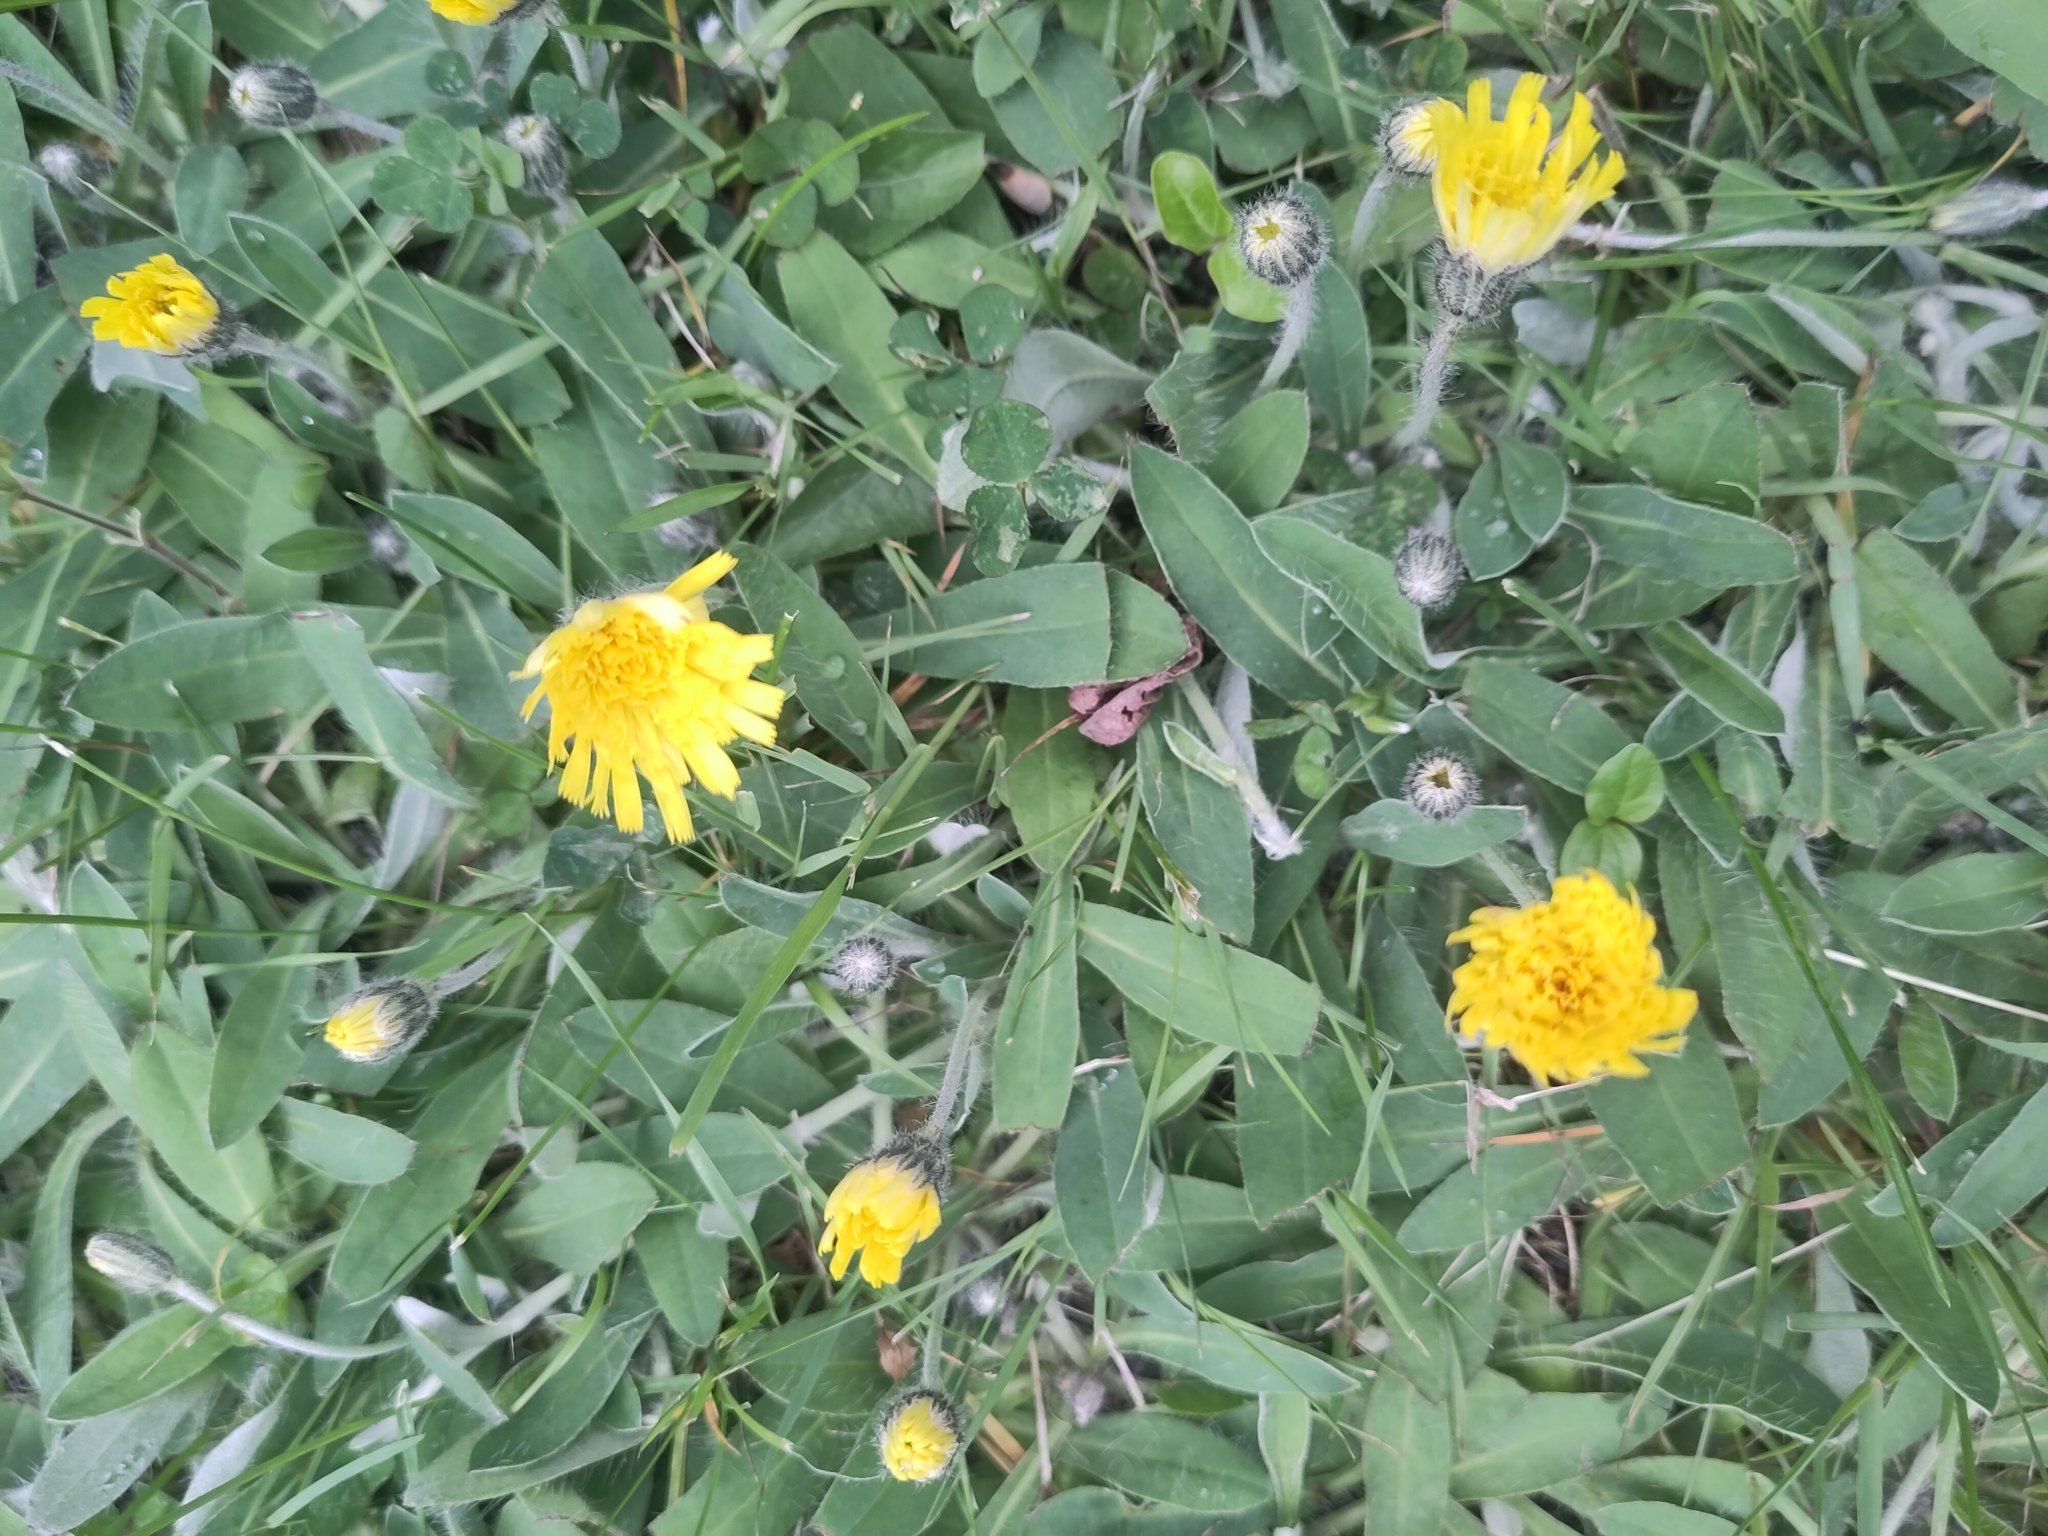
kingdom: Plantae
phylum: Tracheophyta
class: Magnoliopsida
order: Asterales
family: Asteraceae
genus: Pilosella
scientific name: Pilosella officinarum
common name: Mouse-ear hawkweed
